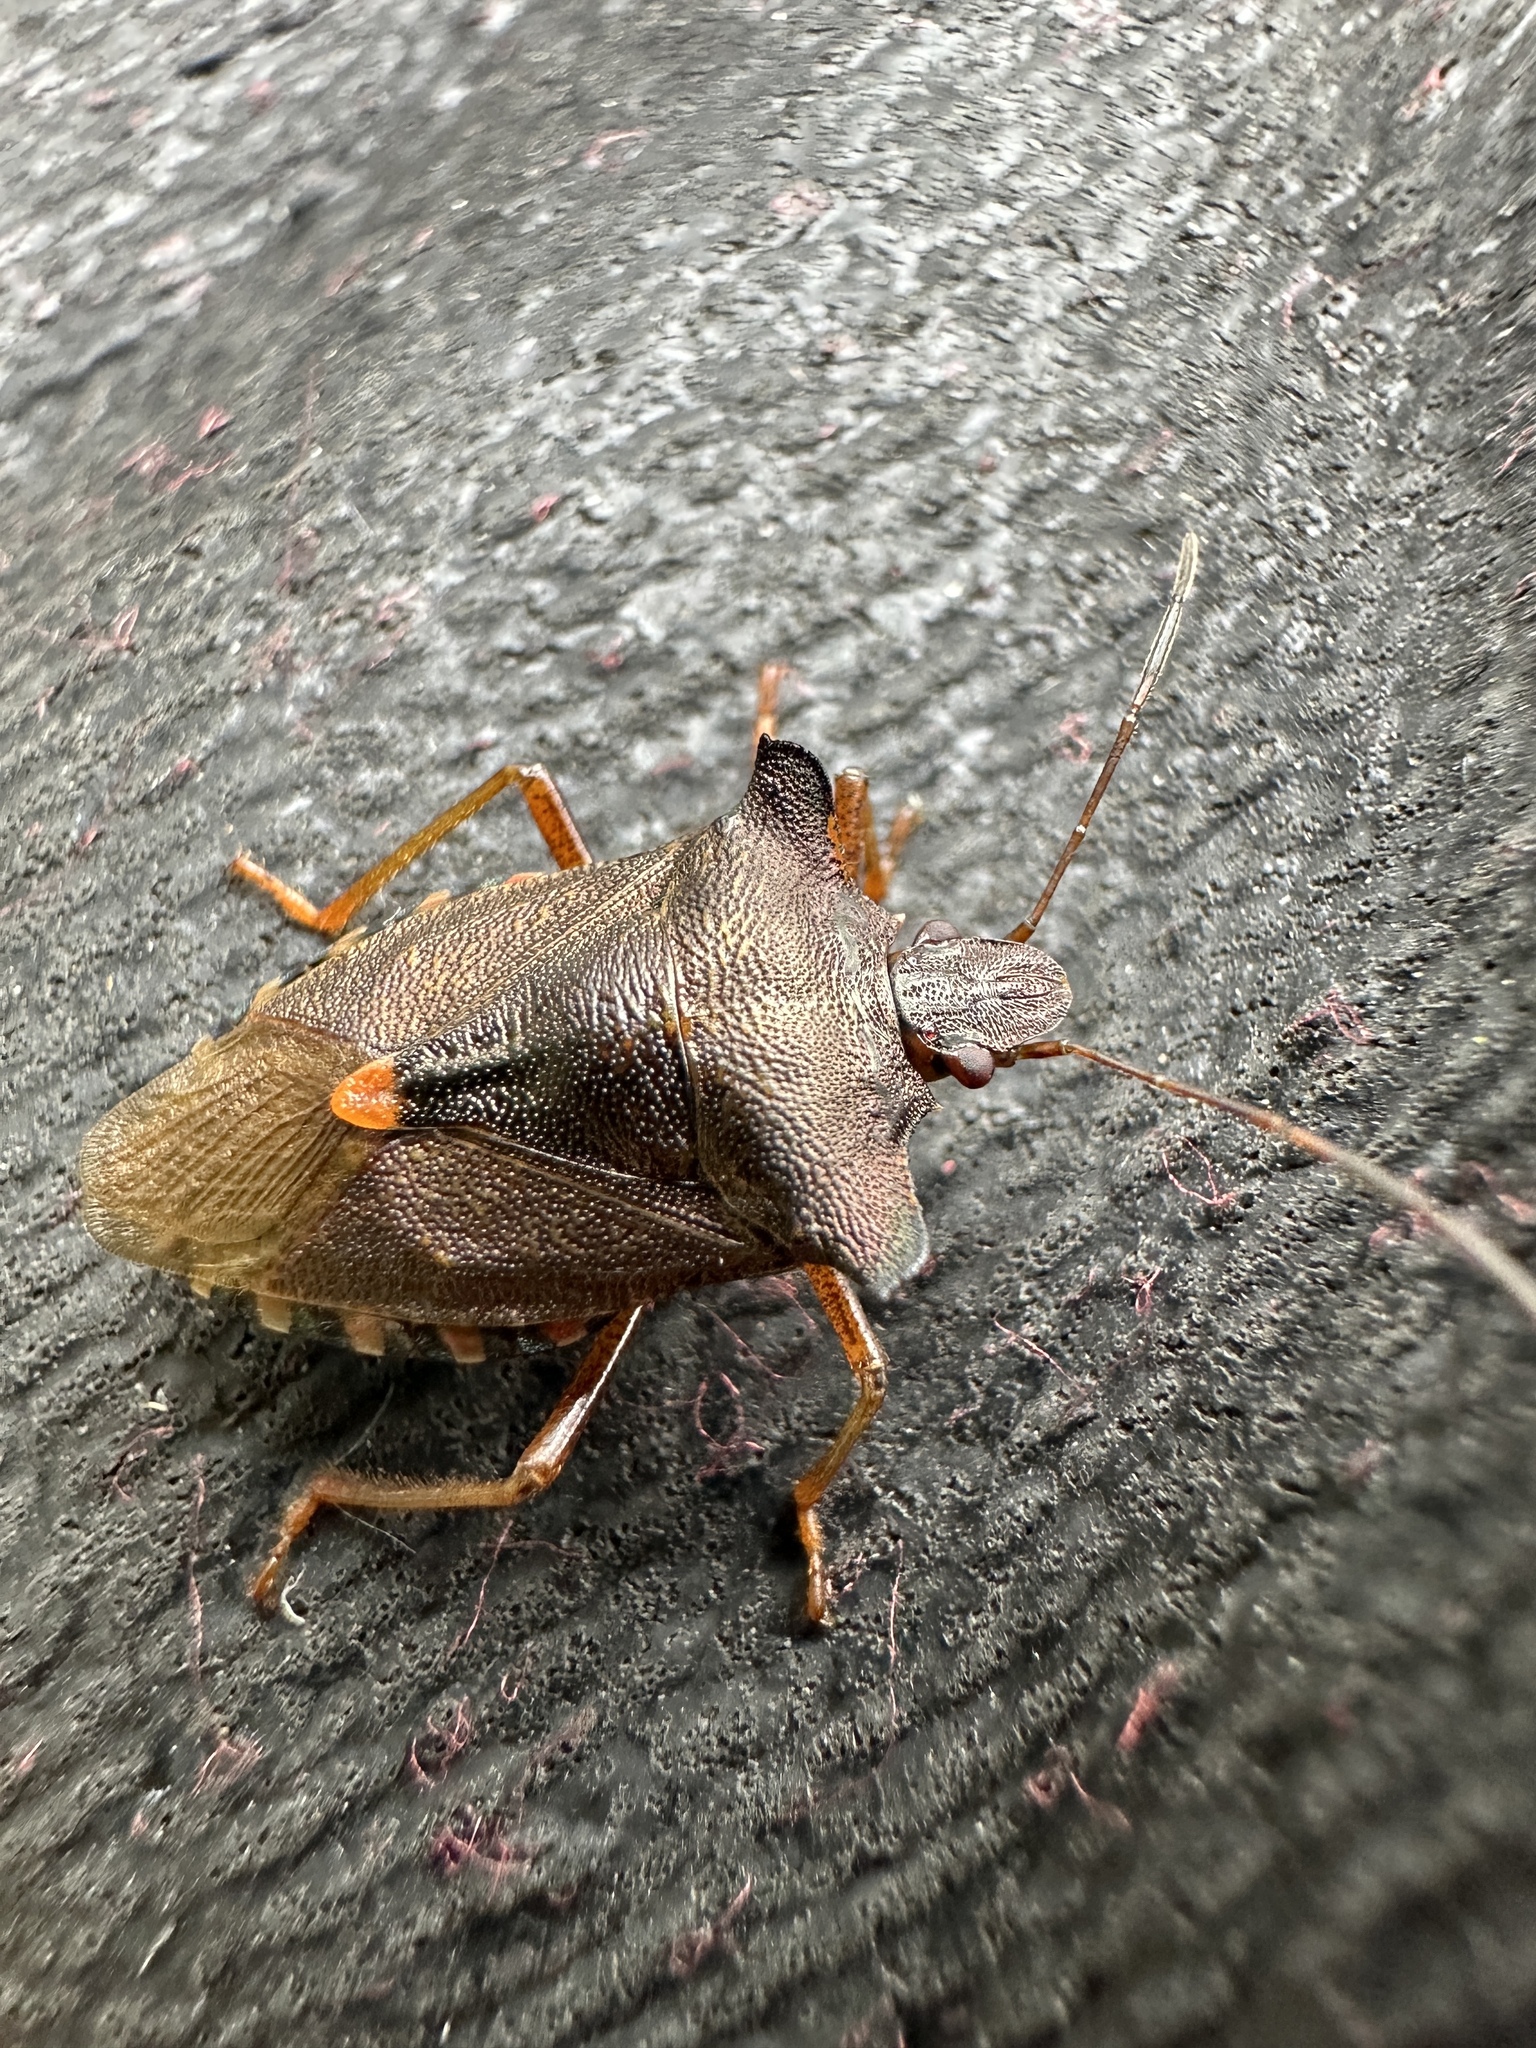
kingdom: Animalia
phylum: Arthropoda
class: Insecta
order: Hemiptera
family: Pentatomidae
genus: Pentatoma
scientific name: Pentatoma rufipes
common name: Forest bug
